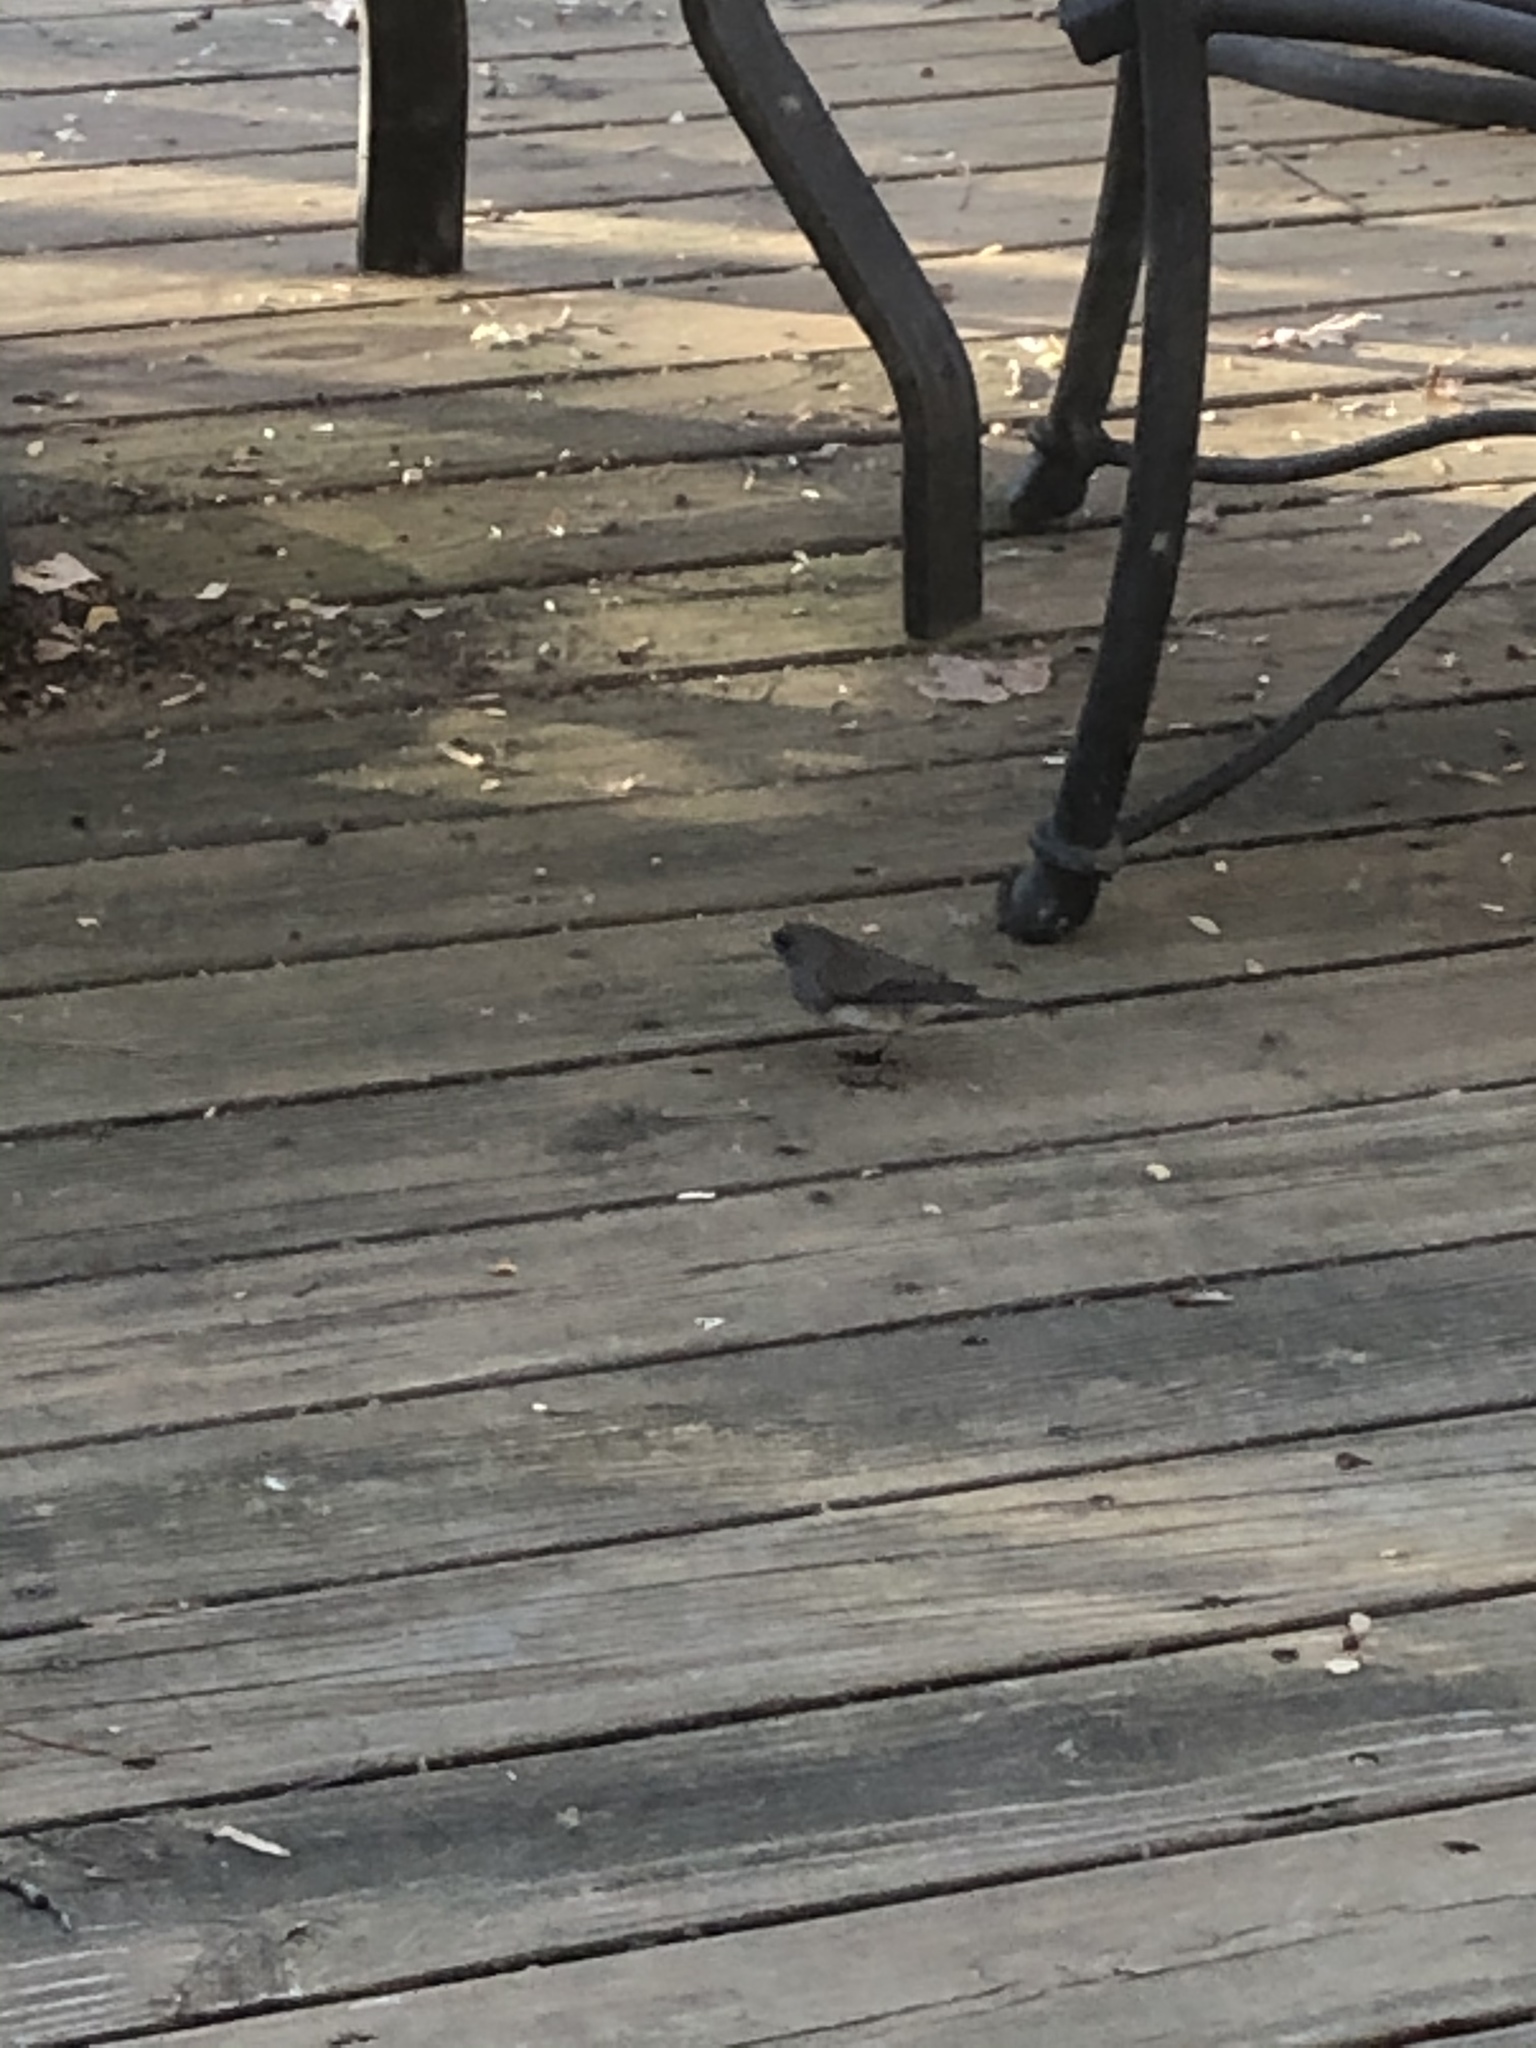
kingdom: Animalia
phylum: Chordata
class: Aves
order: Passeriformes
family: Passerellidae
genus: Junco
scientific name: Junco hyemalis
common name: Dark-eyed junco
